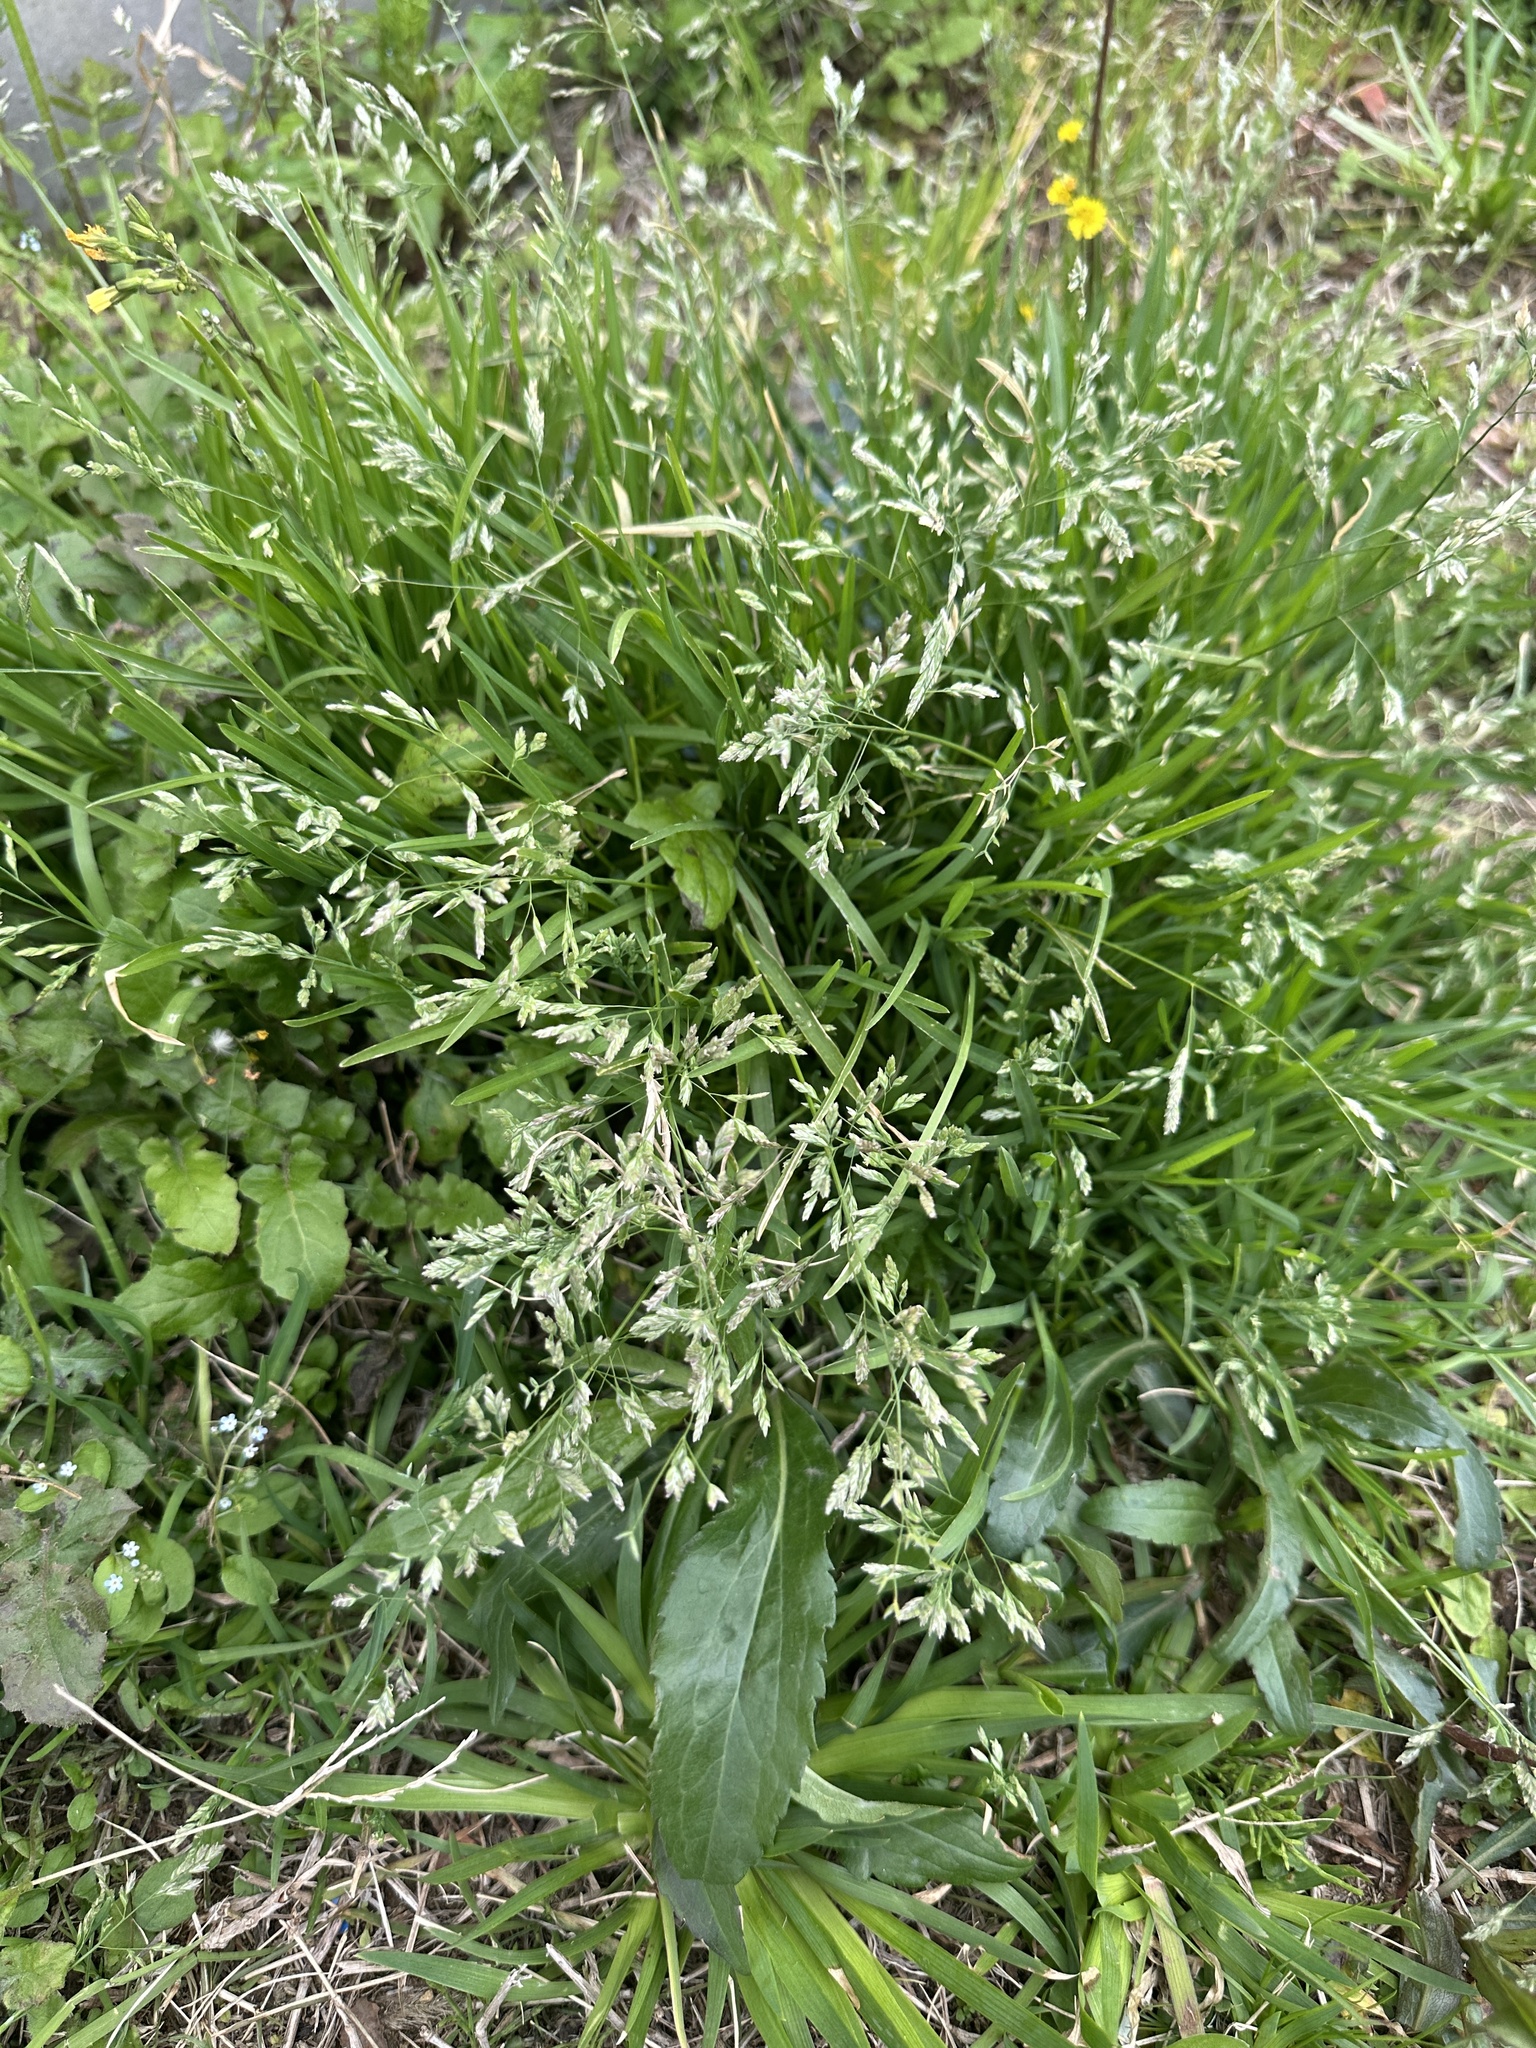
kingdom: Plantae
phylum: Tracheophyta
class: Liliopsida
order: Poales
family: Poaceae
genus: Poa
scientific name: Poa annua
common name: Annual bluegrass
